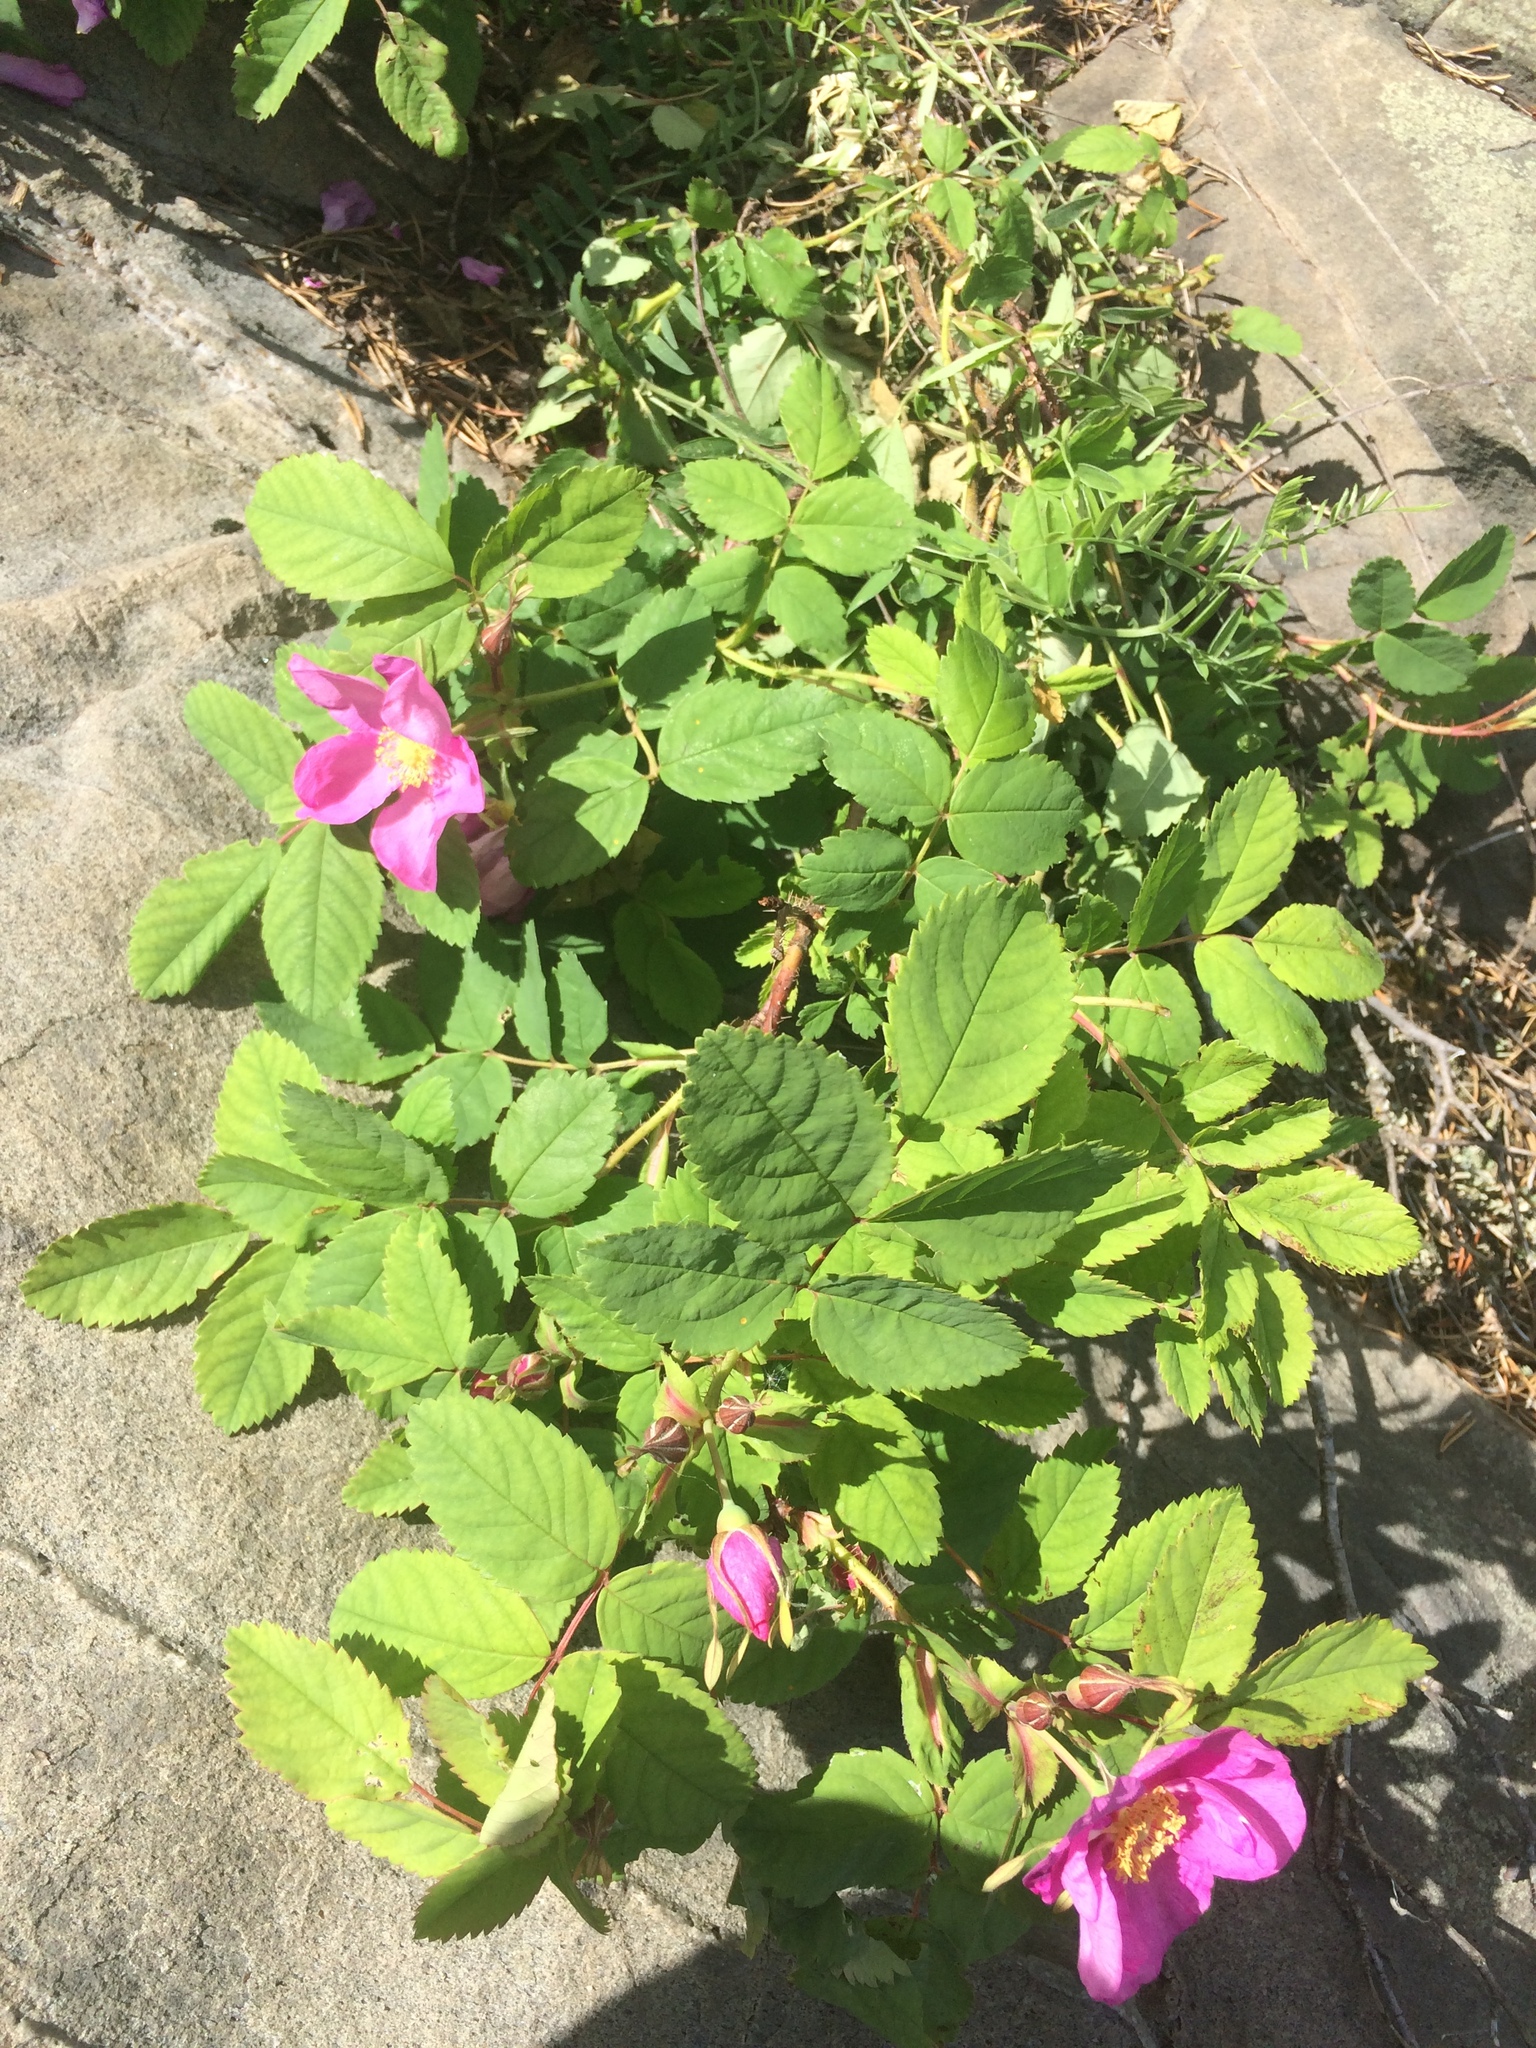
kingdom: Plantae
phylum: Tracheophyta
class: Magnoliopsida
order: Rosales
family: Rosaceae
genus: Rosa
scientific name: Rosa acicularis
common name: Prickly rose
